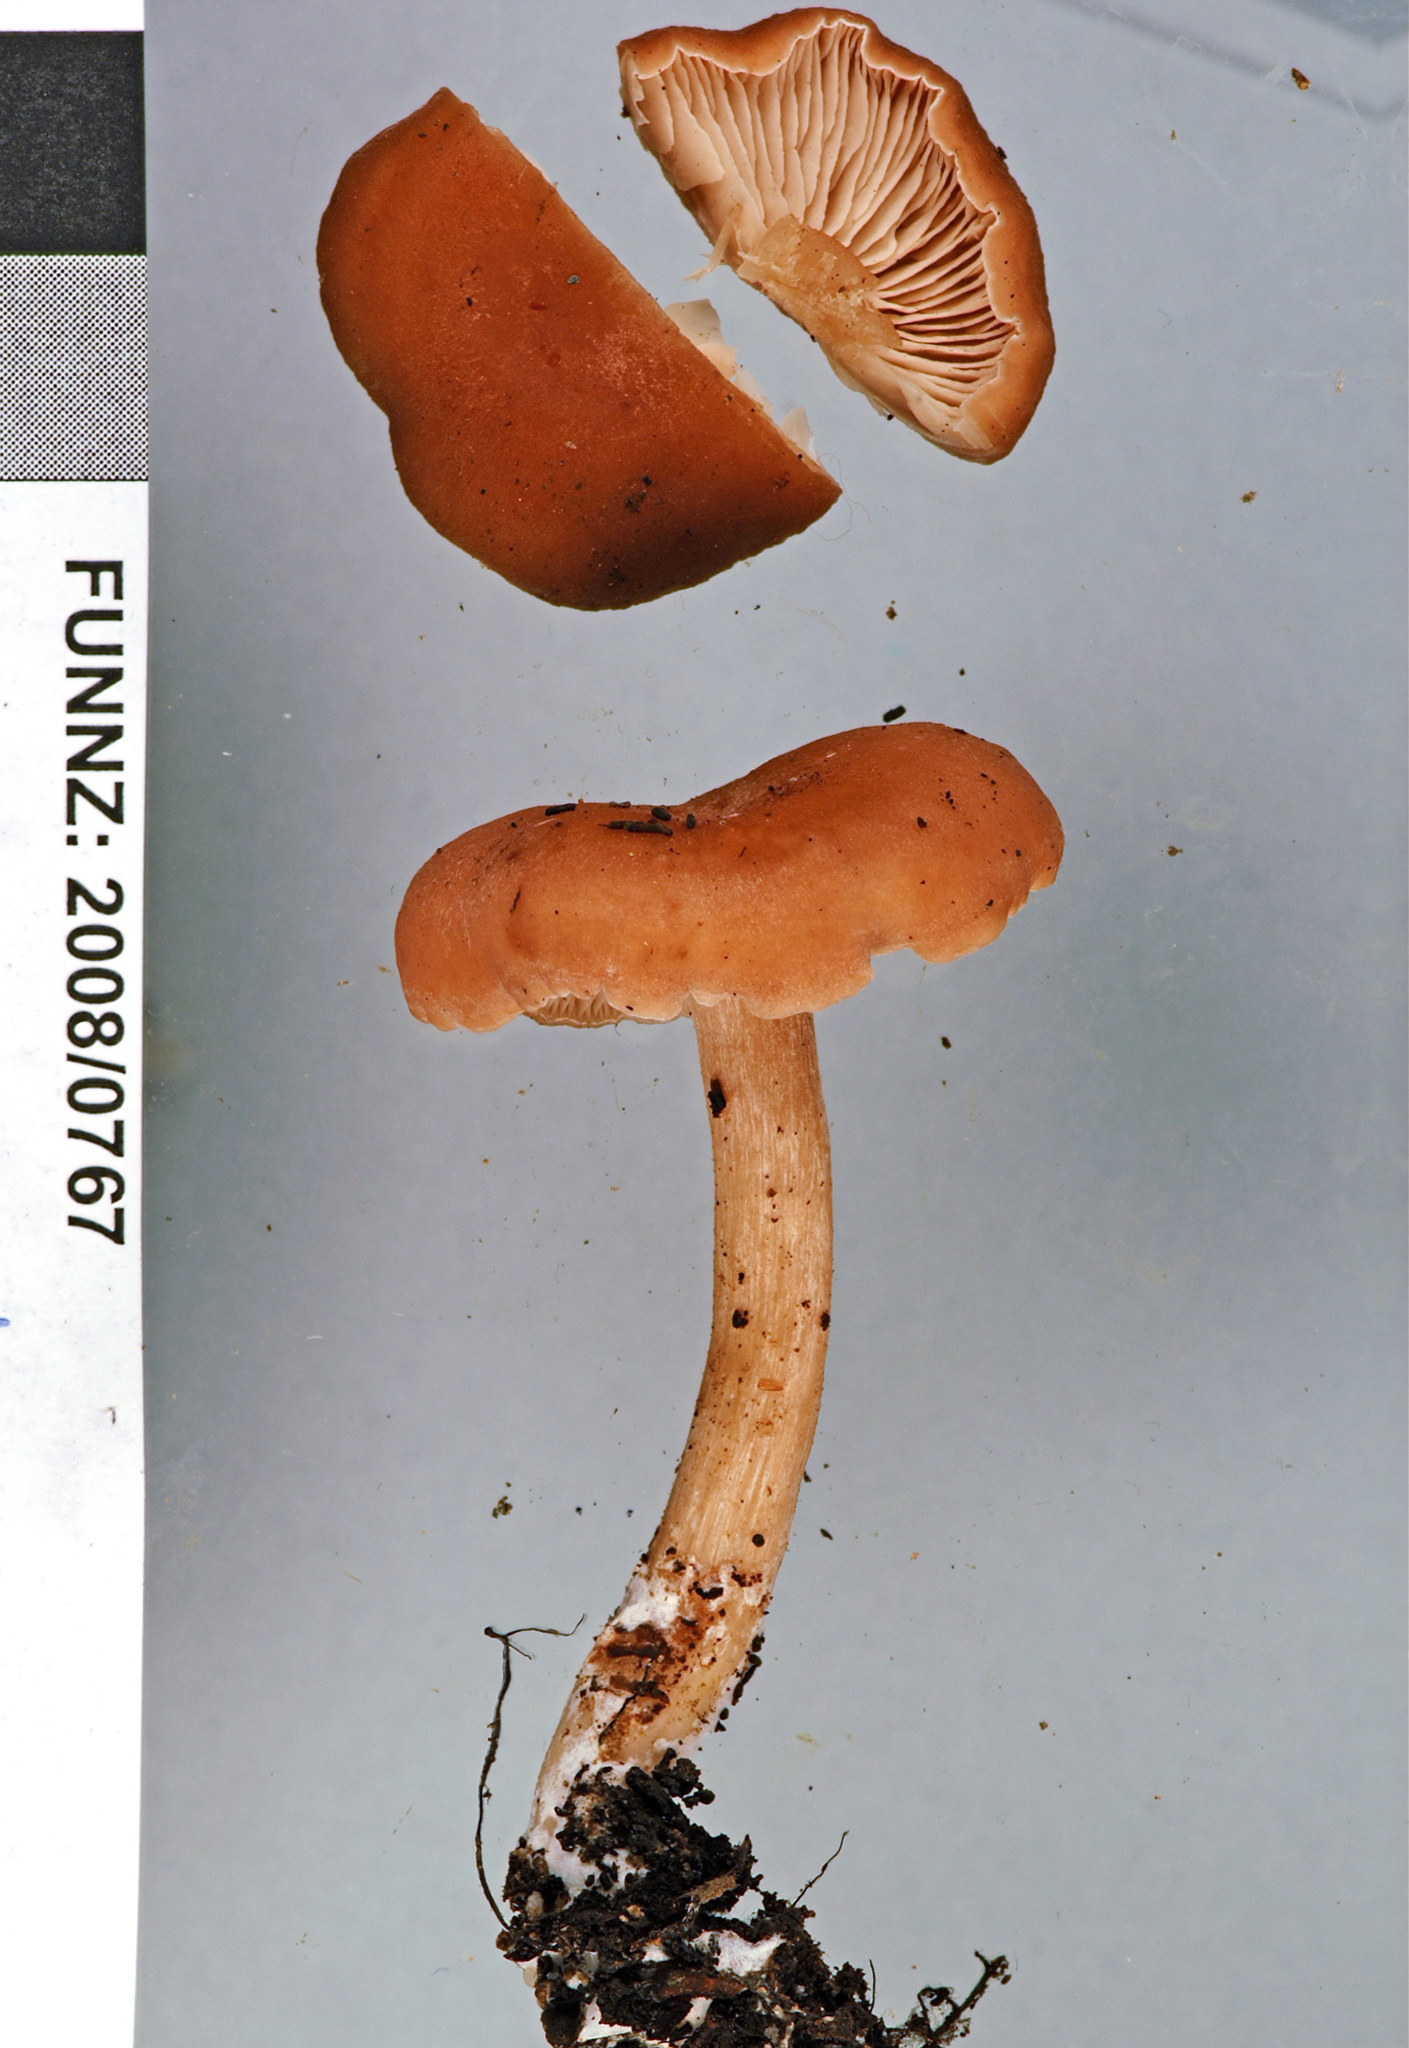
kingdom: Fungi
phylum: Basidiomycota
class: Agaricomycetes
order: Agaricales
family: Entolomataceae
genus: Clitopilus
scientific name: Clitopilus dingleyae
